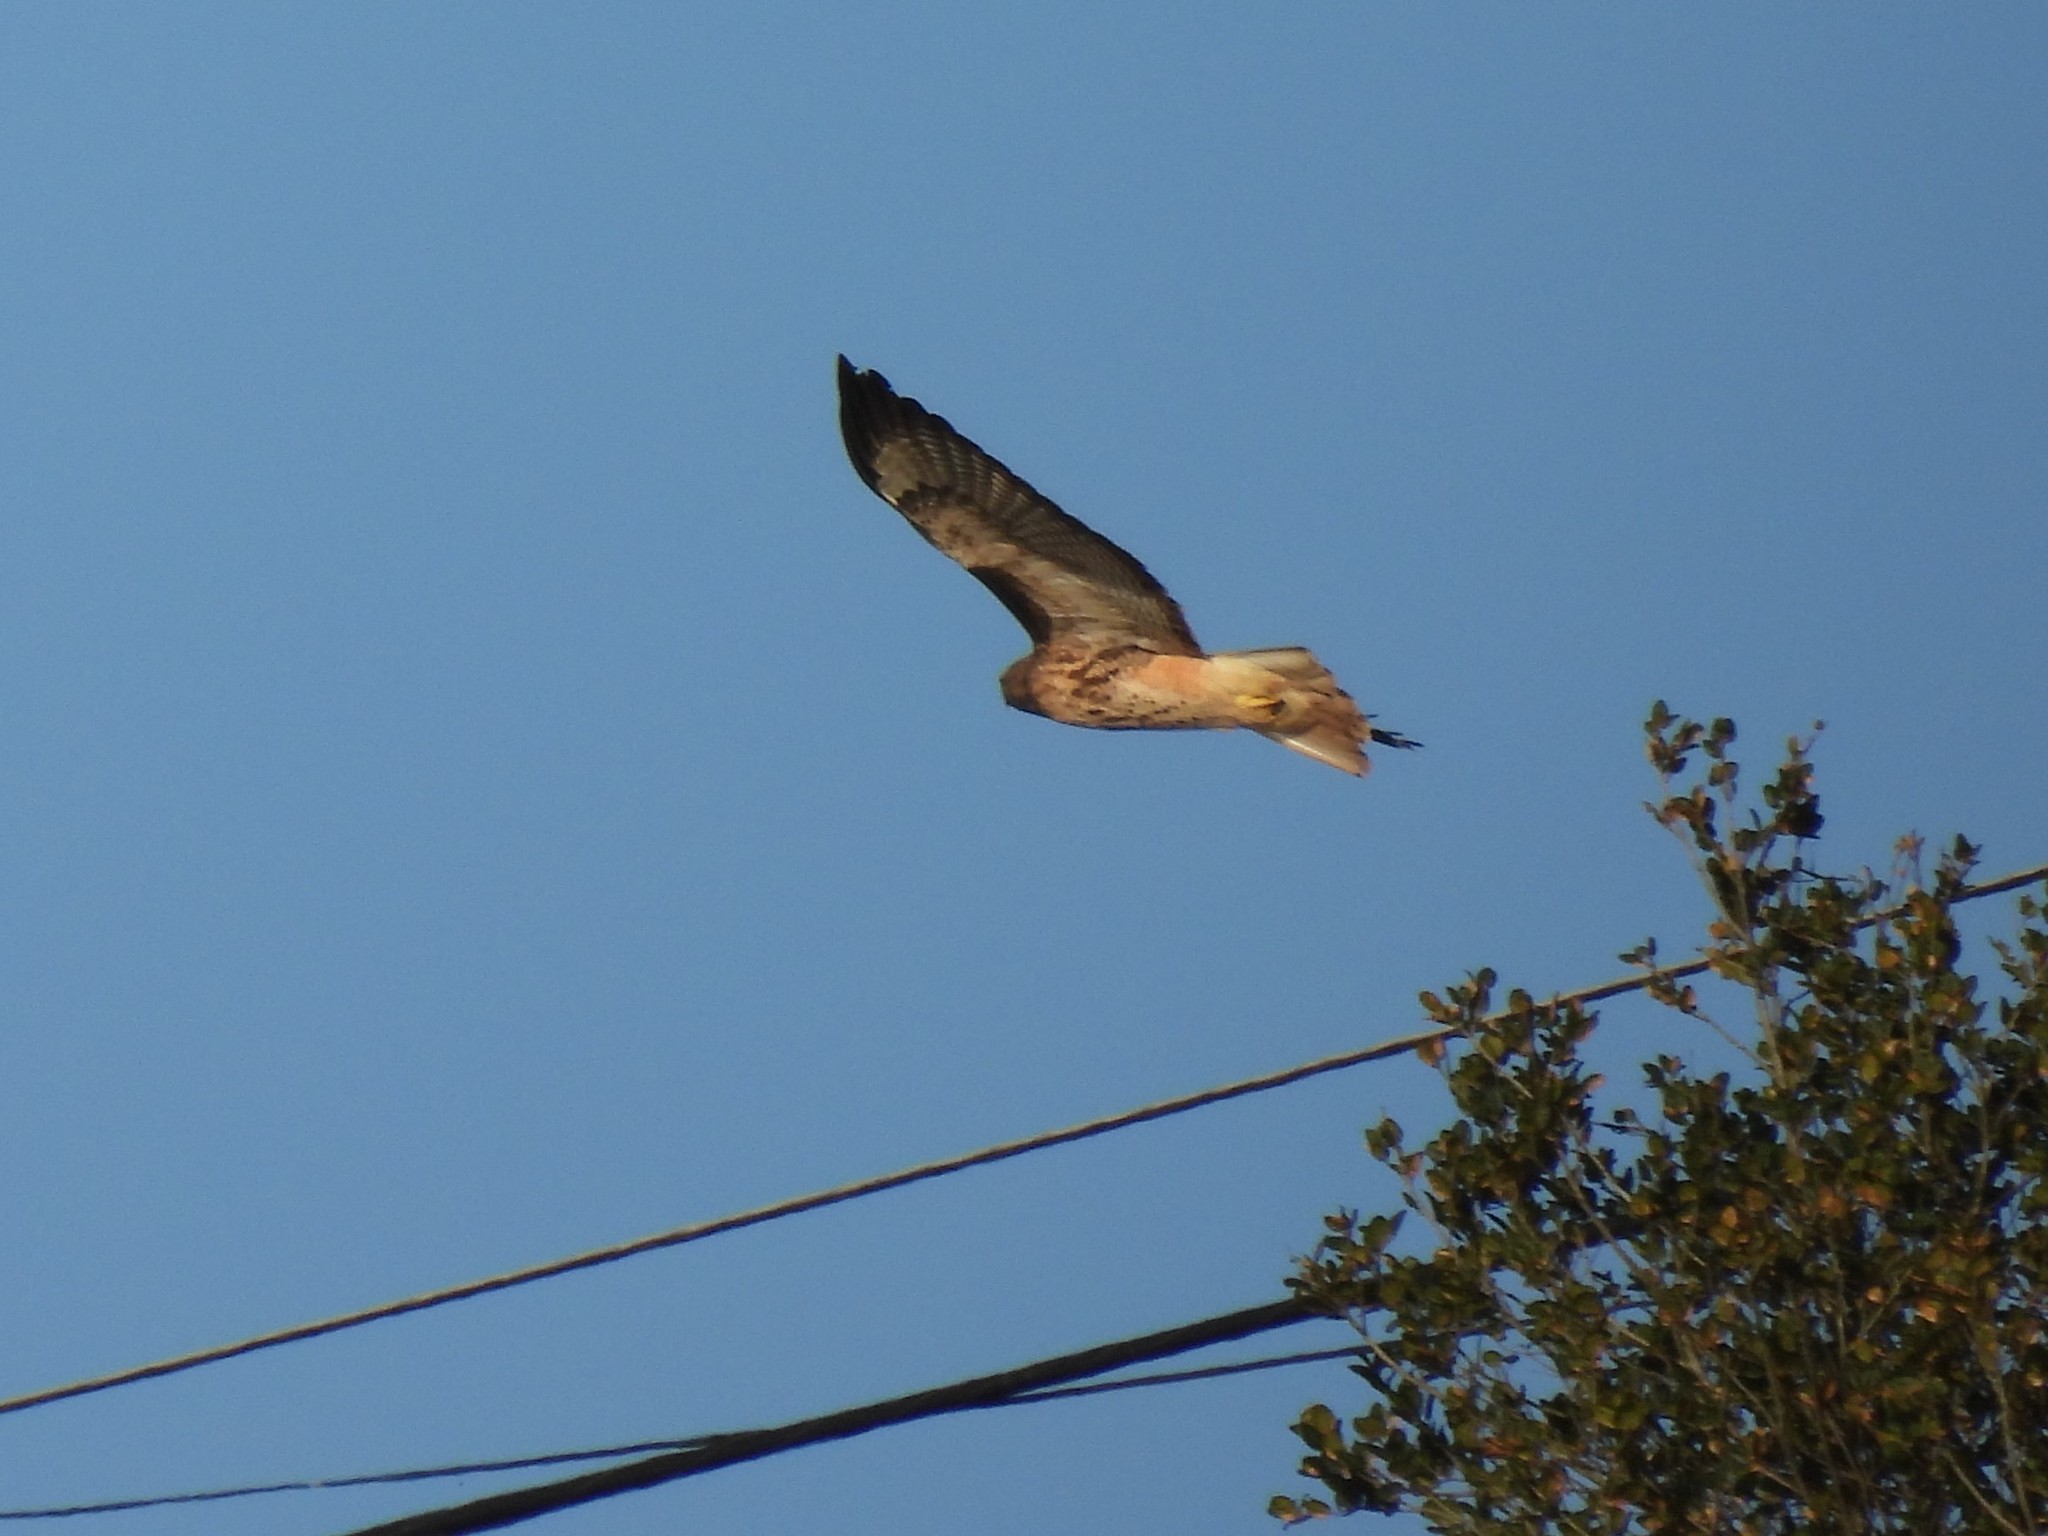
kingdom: Animalia
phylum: Chordata
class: Aves
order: Accipitriformes
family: Accipitridae
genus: Buteo
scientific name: Buteo jamaicensis
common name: Red-tailed hawk
